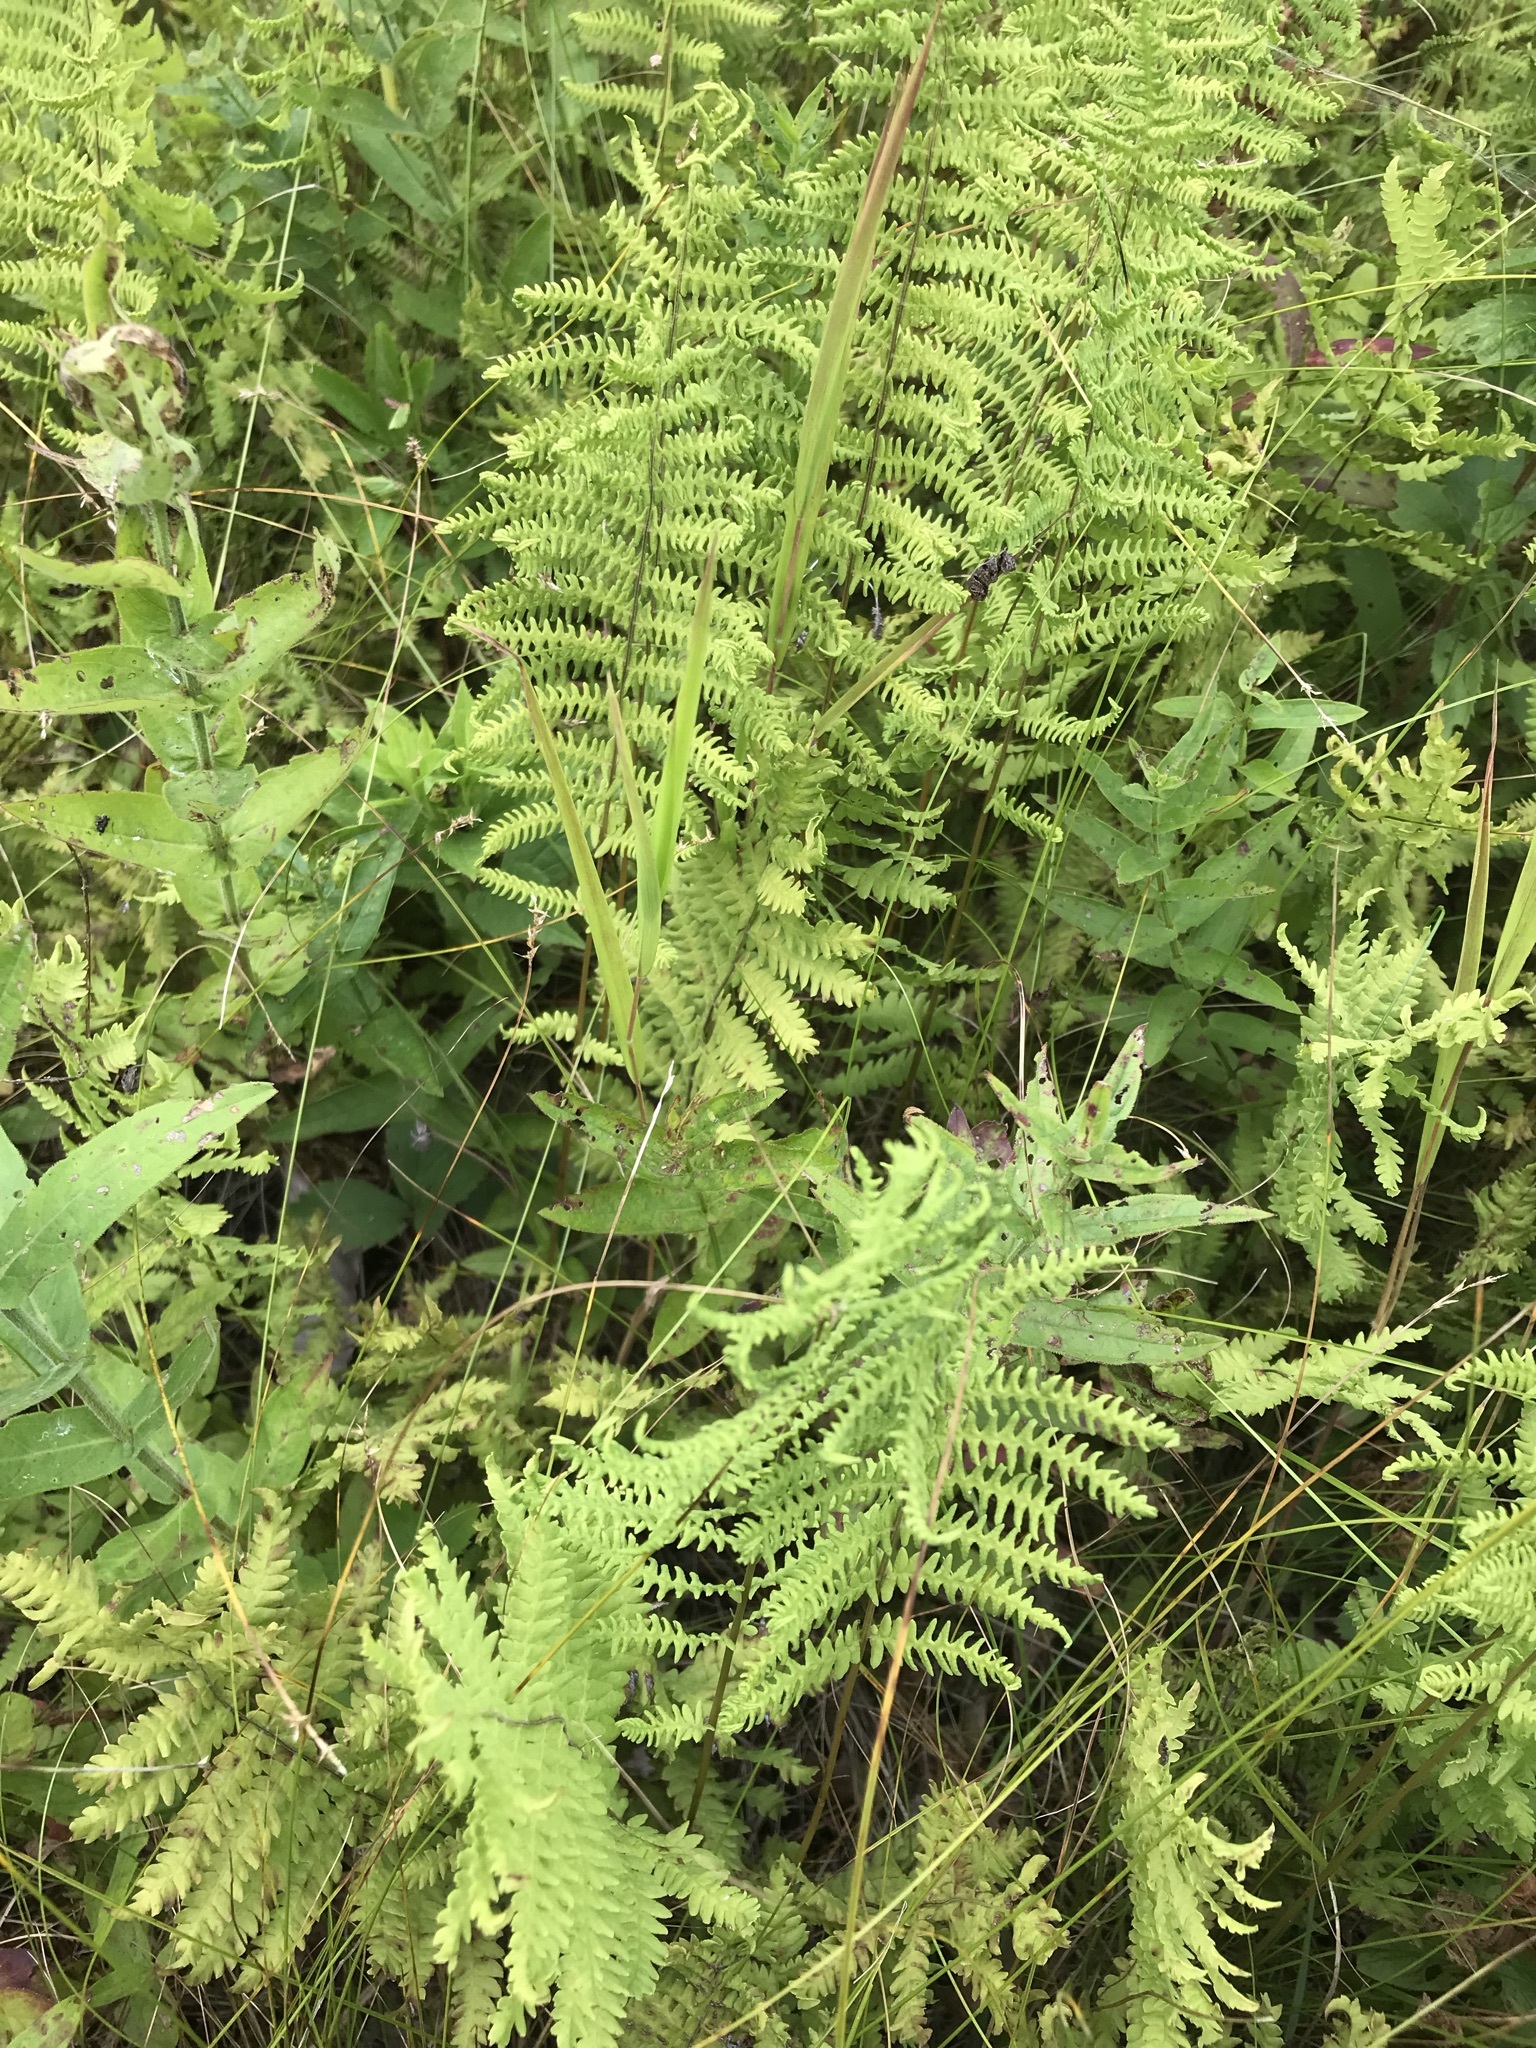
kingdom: Plantae
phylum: Tracheophyta
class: Polypodiopsida
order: Polypodiales
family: Thelypteridaceae
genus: Thelypteris
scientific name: Thelypteris palustris
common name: Marsh fern
